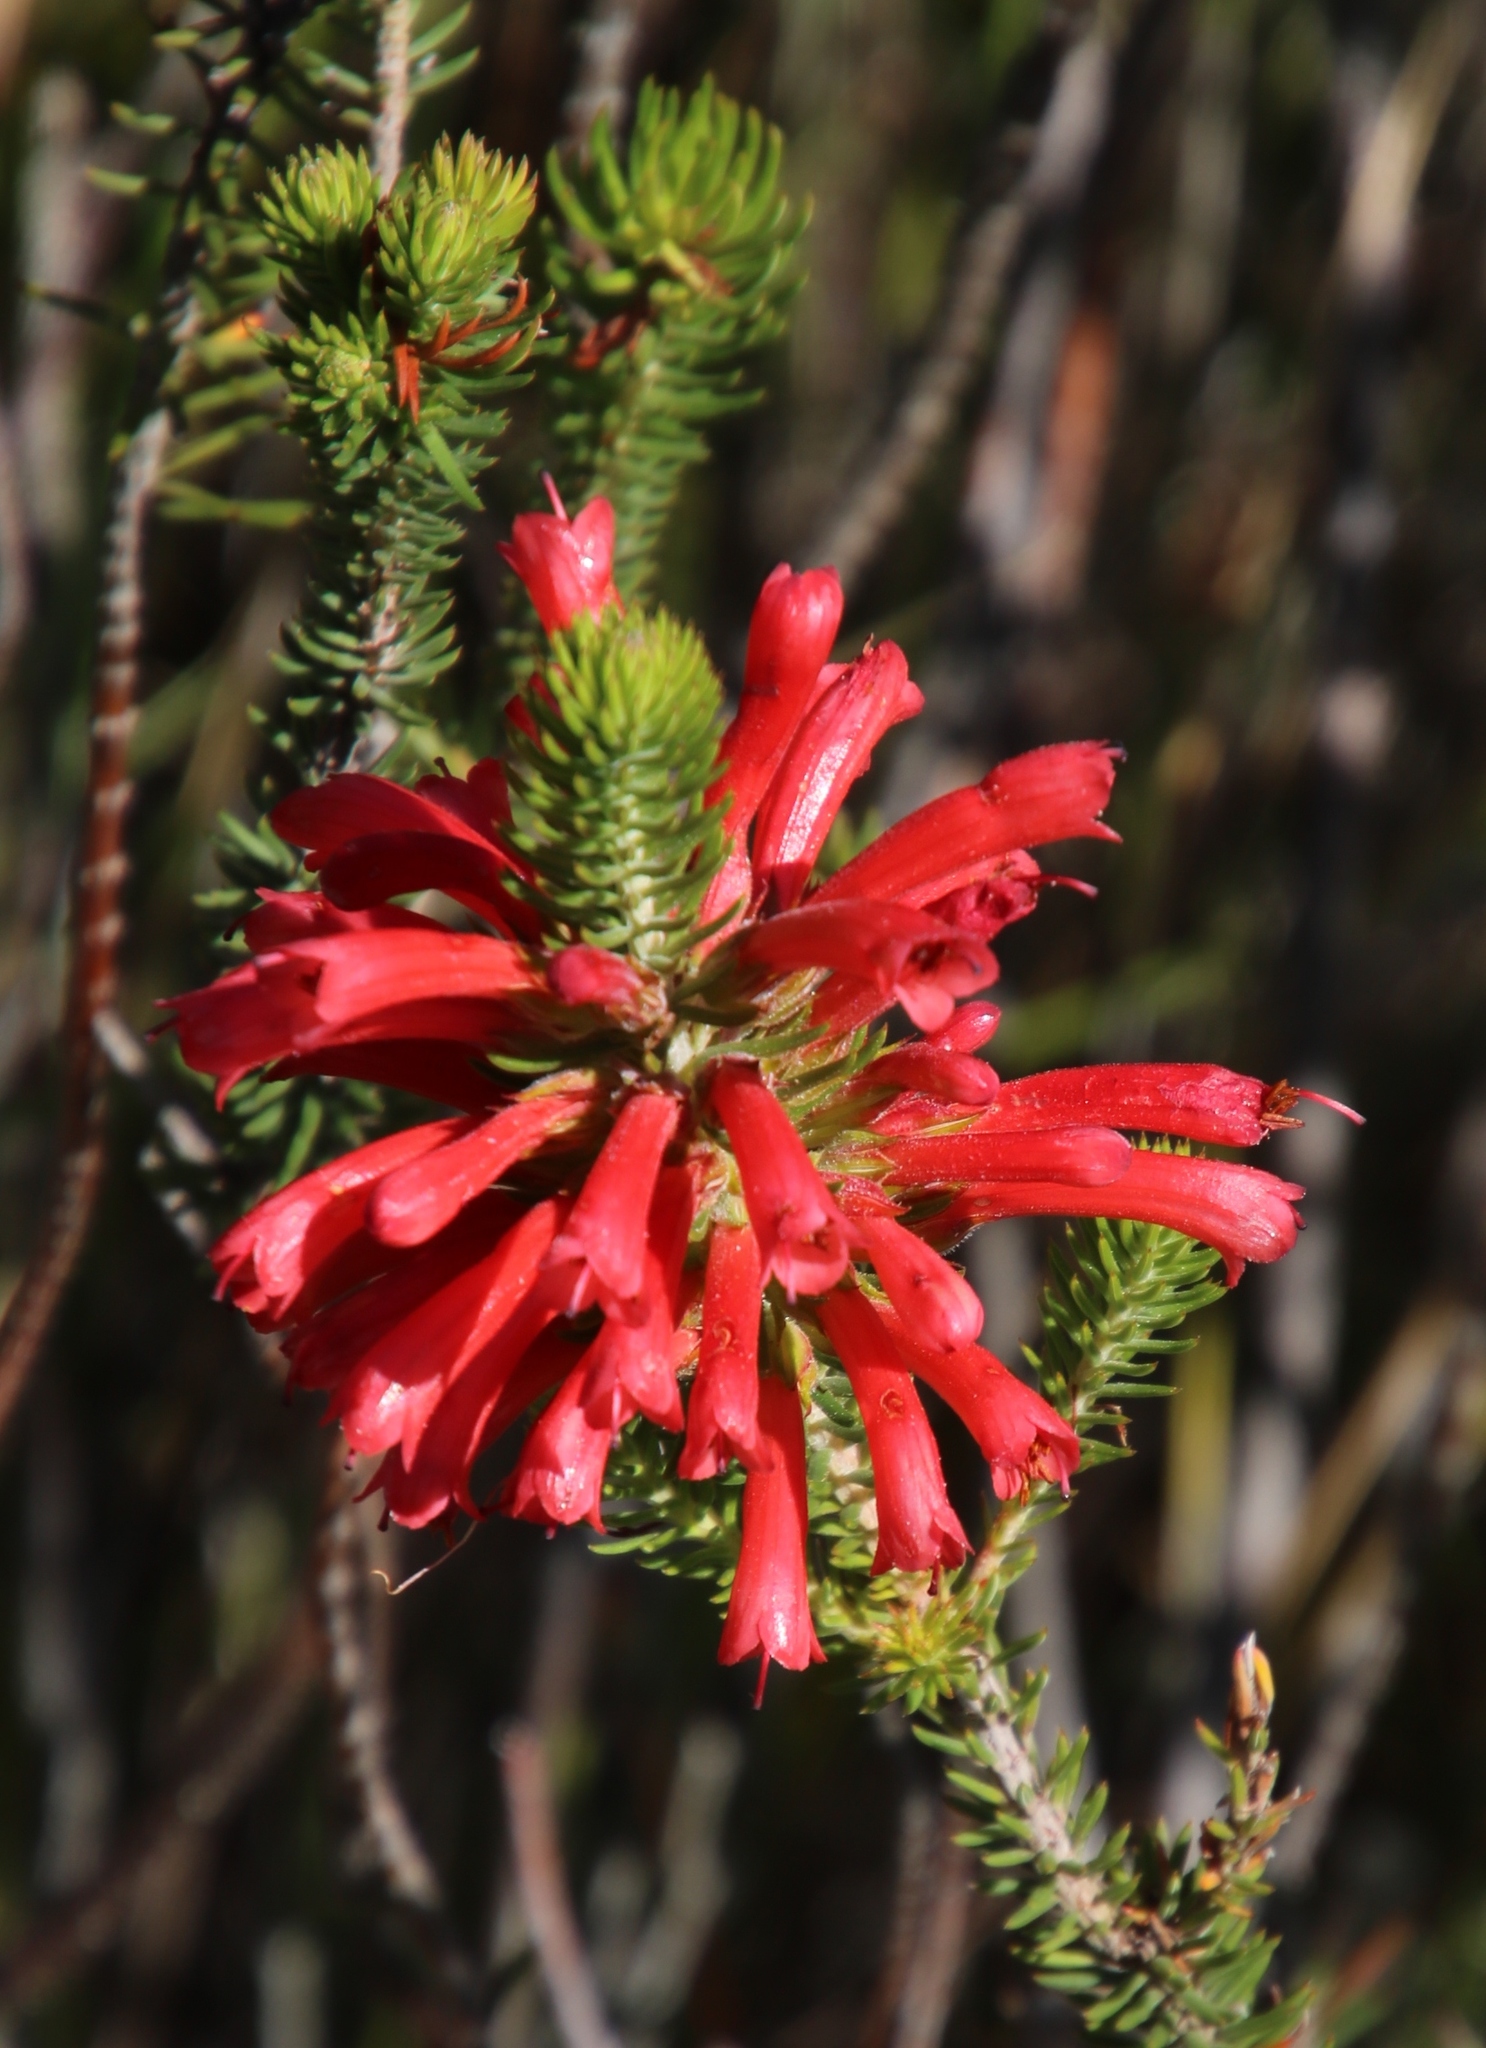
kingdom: Plantae
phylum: Tracheophyta
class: Magnoliopsida
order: Ericales
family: Ericaceae
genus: Erica
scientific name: Erica abietina
